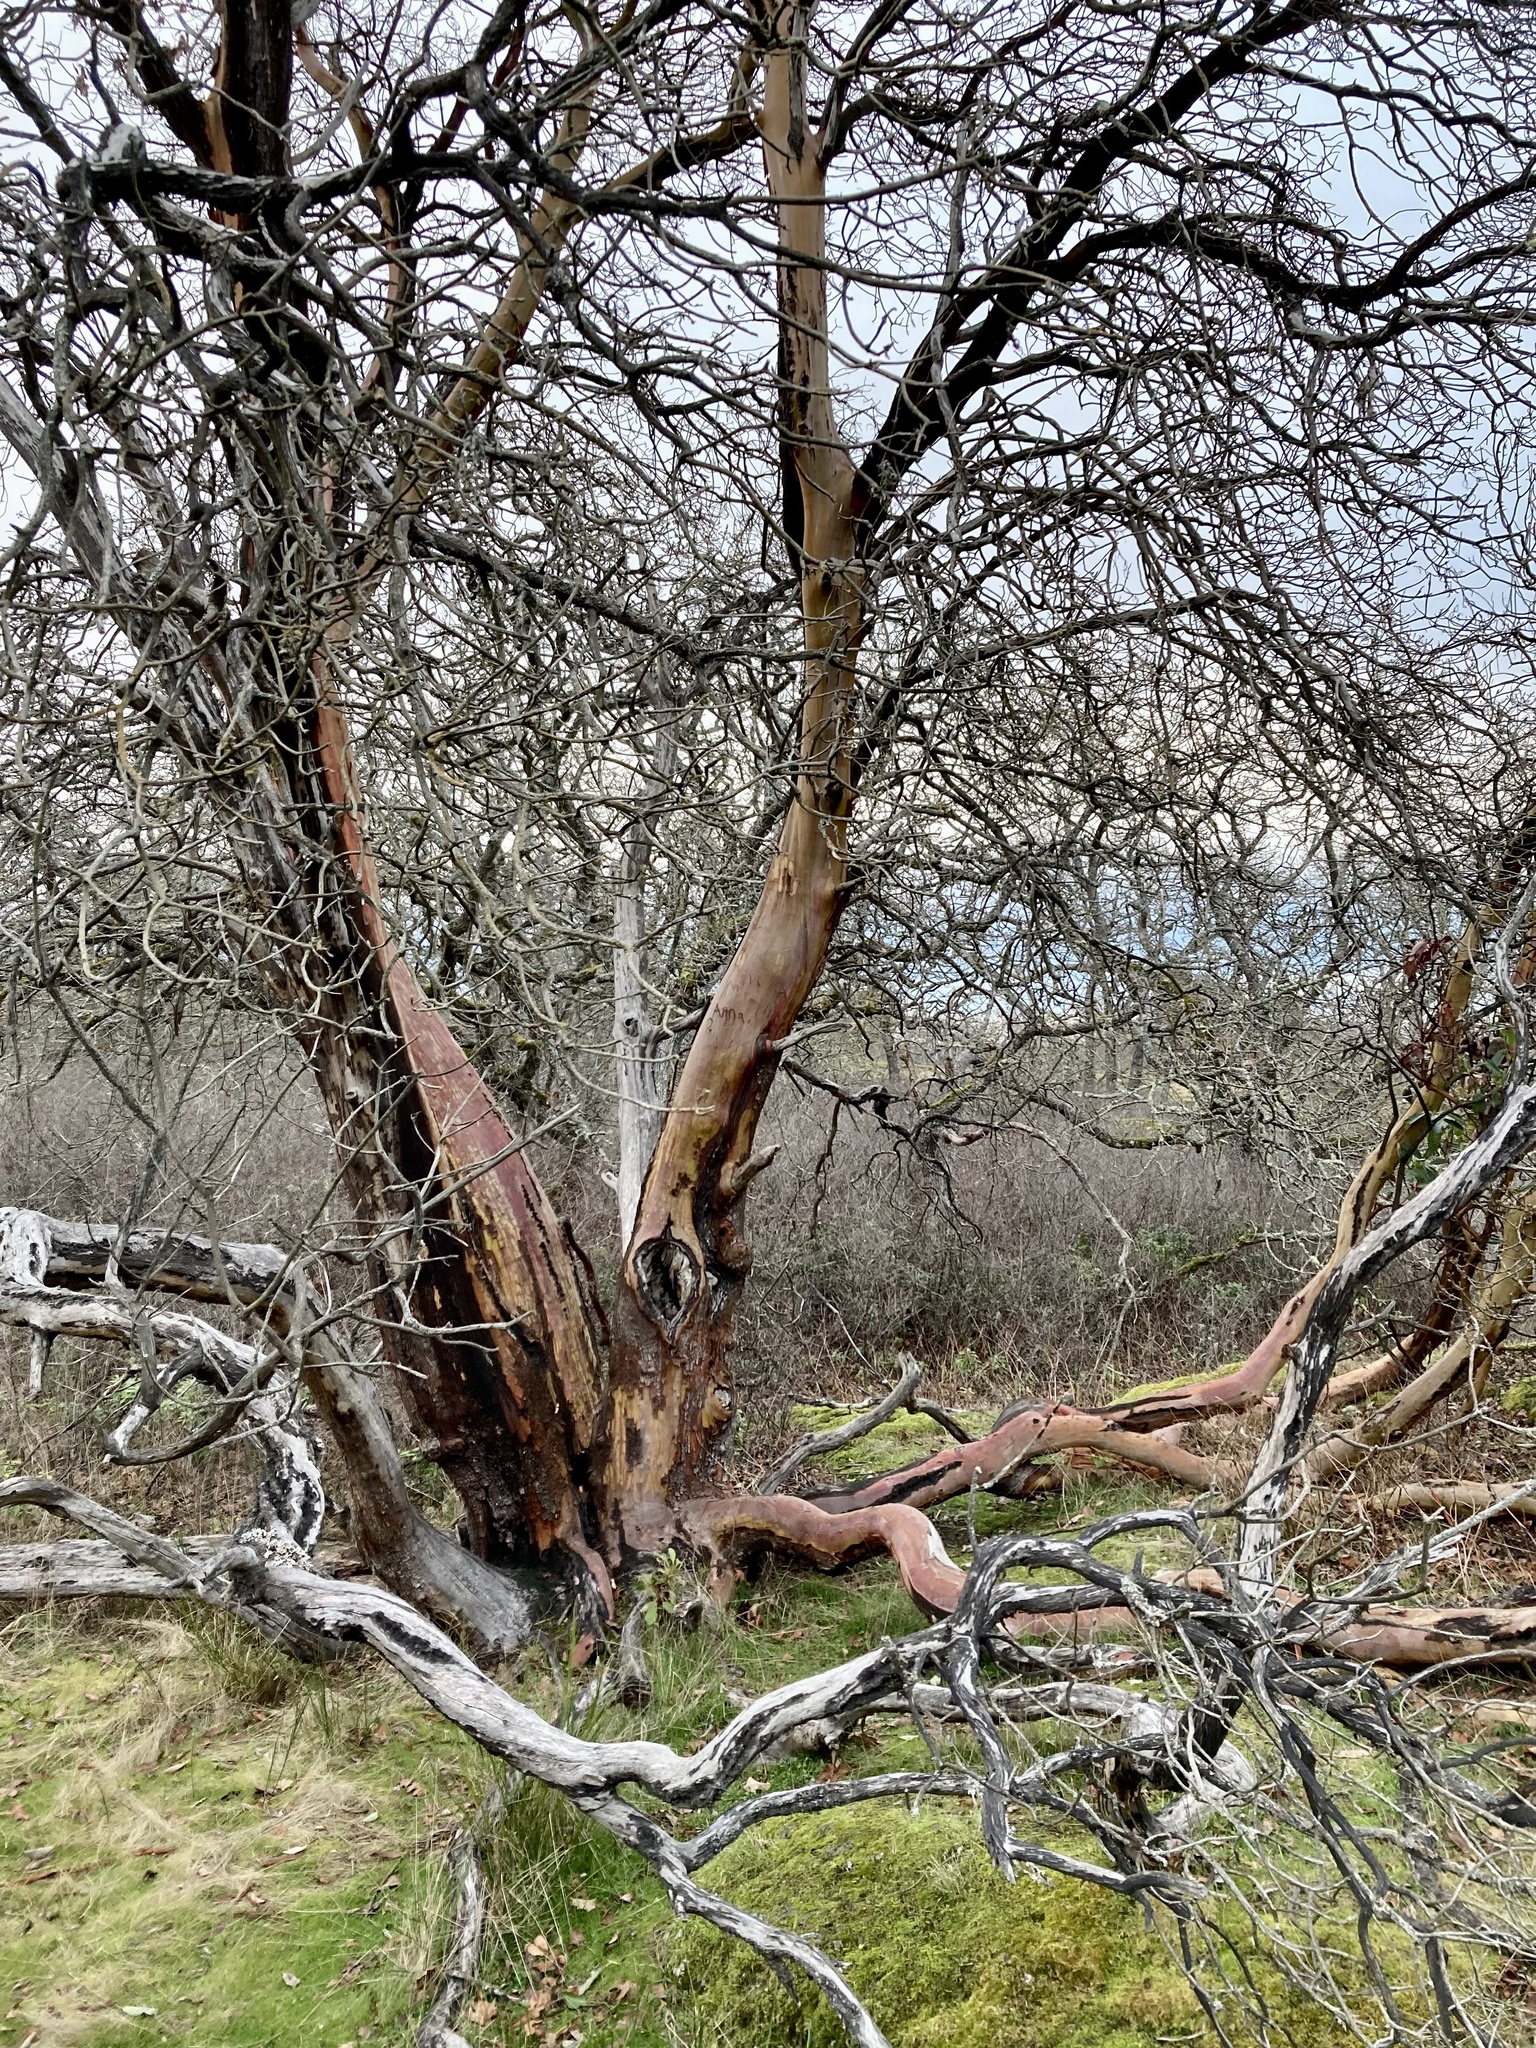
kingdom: Plantae
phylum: Tracheophyta
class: Magnoliopsida
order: Ericales
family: Ericaceae
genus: Arbutus
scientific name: Arbutus menziesii
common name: Pacific madrone
